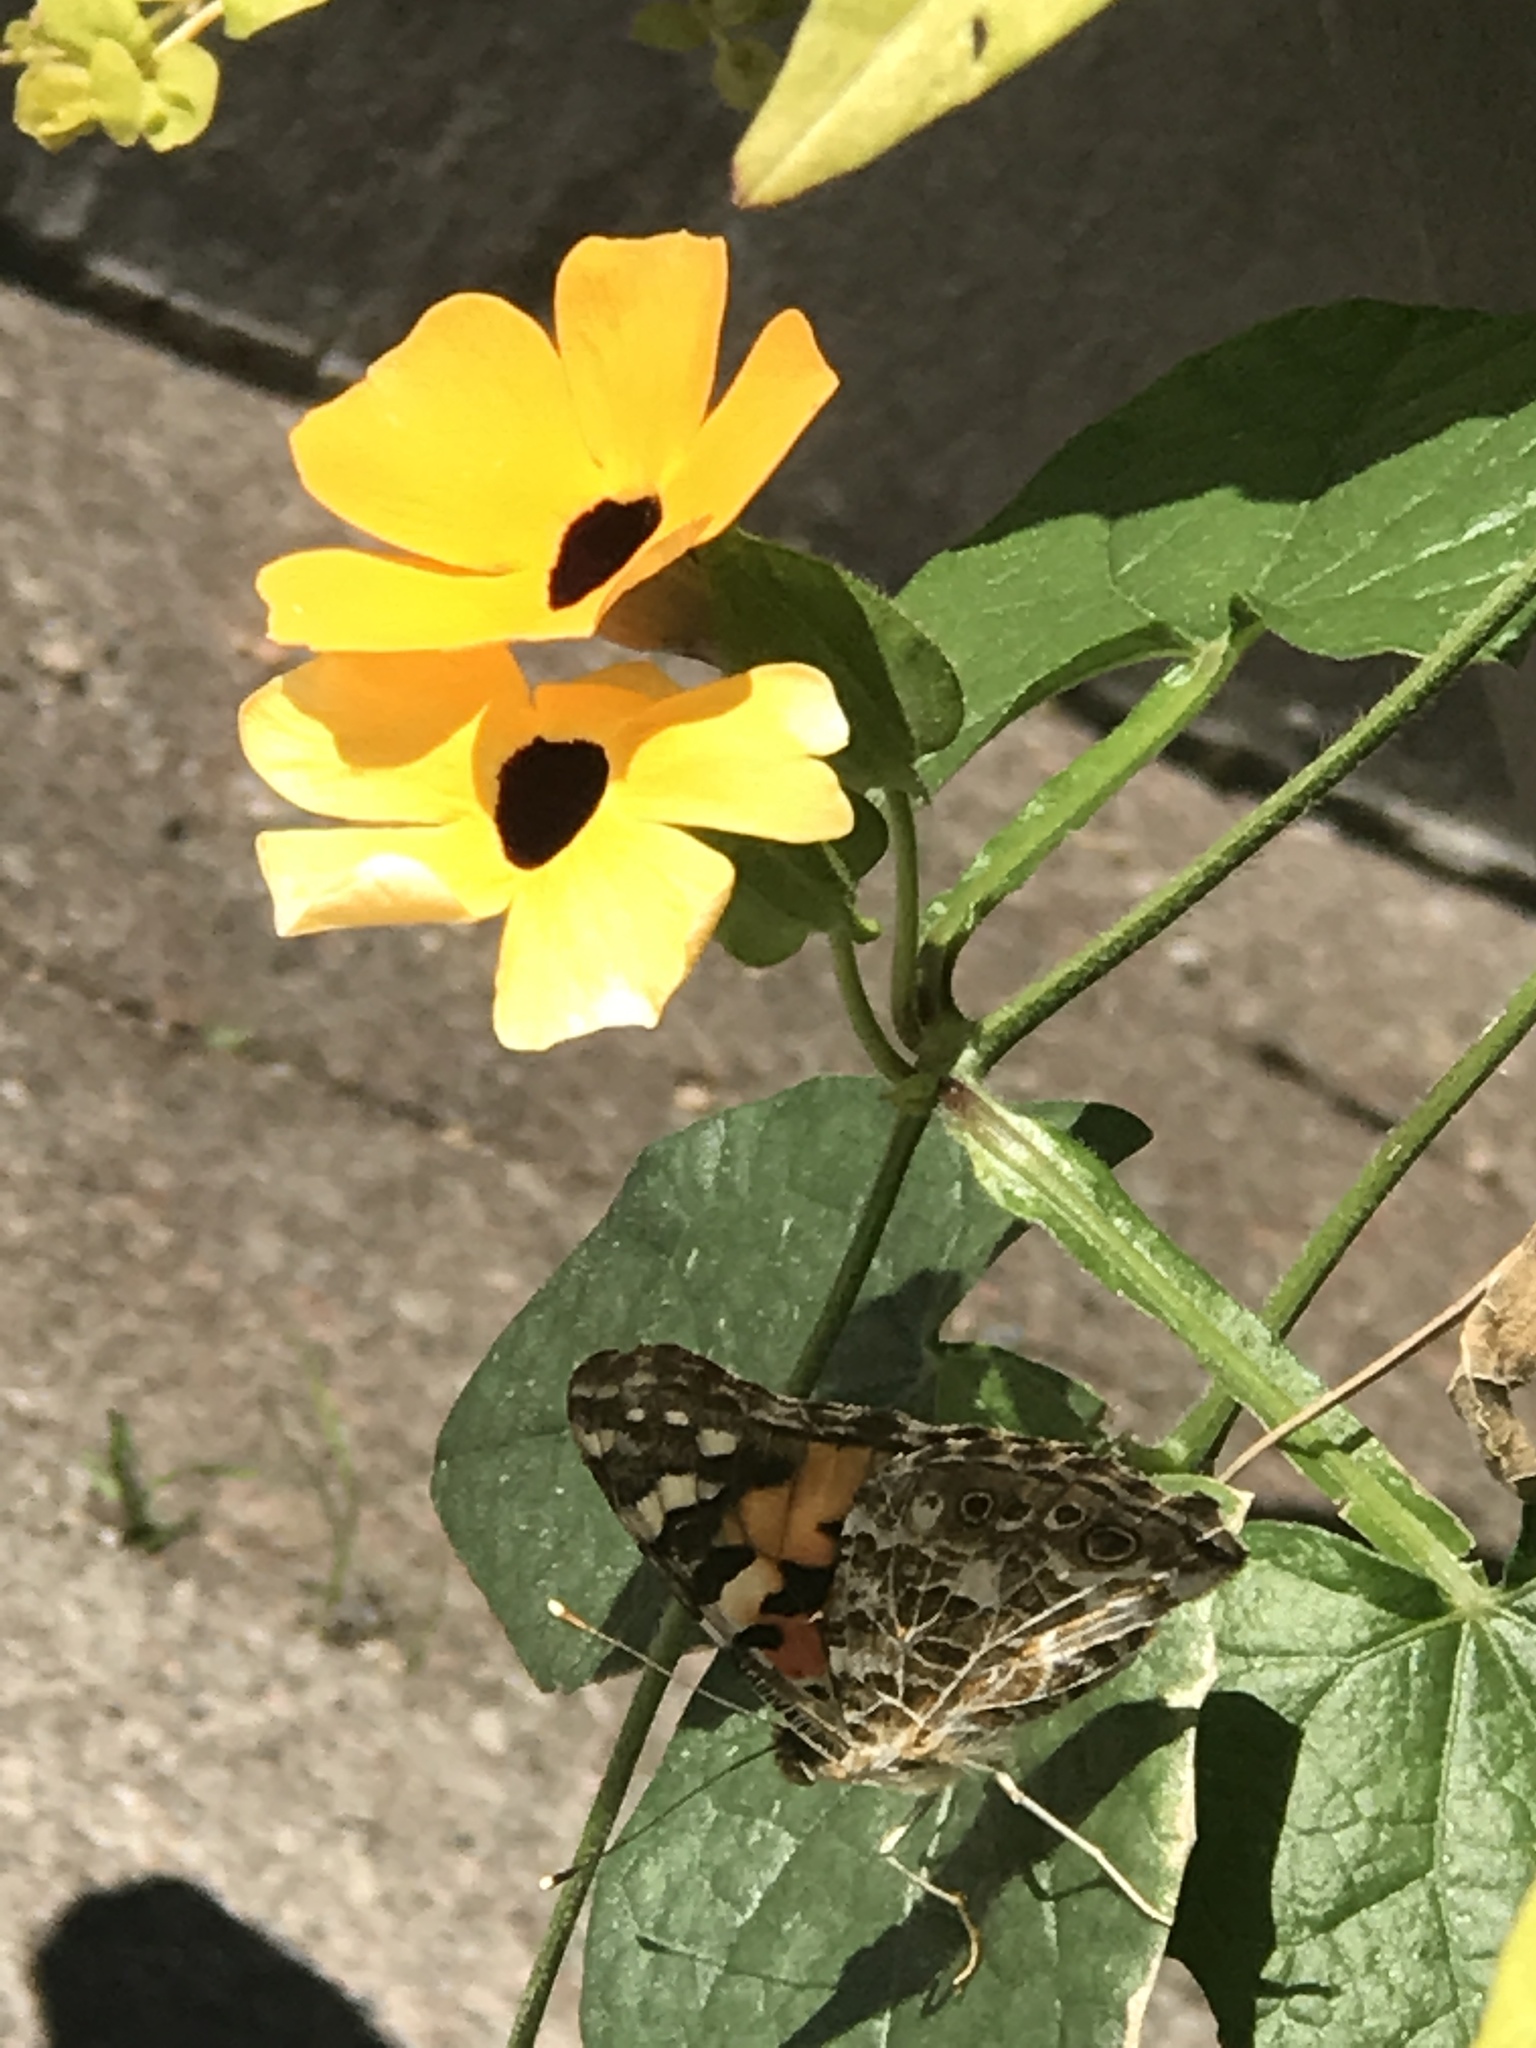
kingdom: Animalia
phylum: Arthropoda
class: Insecta
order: Lepidoptera
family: Nymphalidae
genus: Vanessa
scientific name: Vanessa cardui
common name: Painted lady
